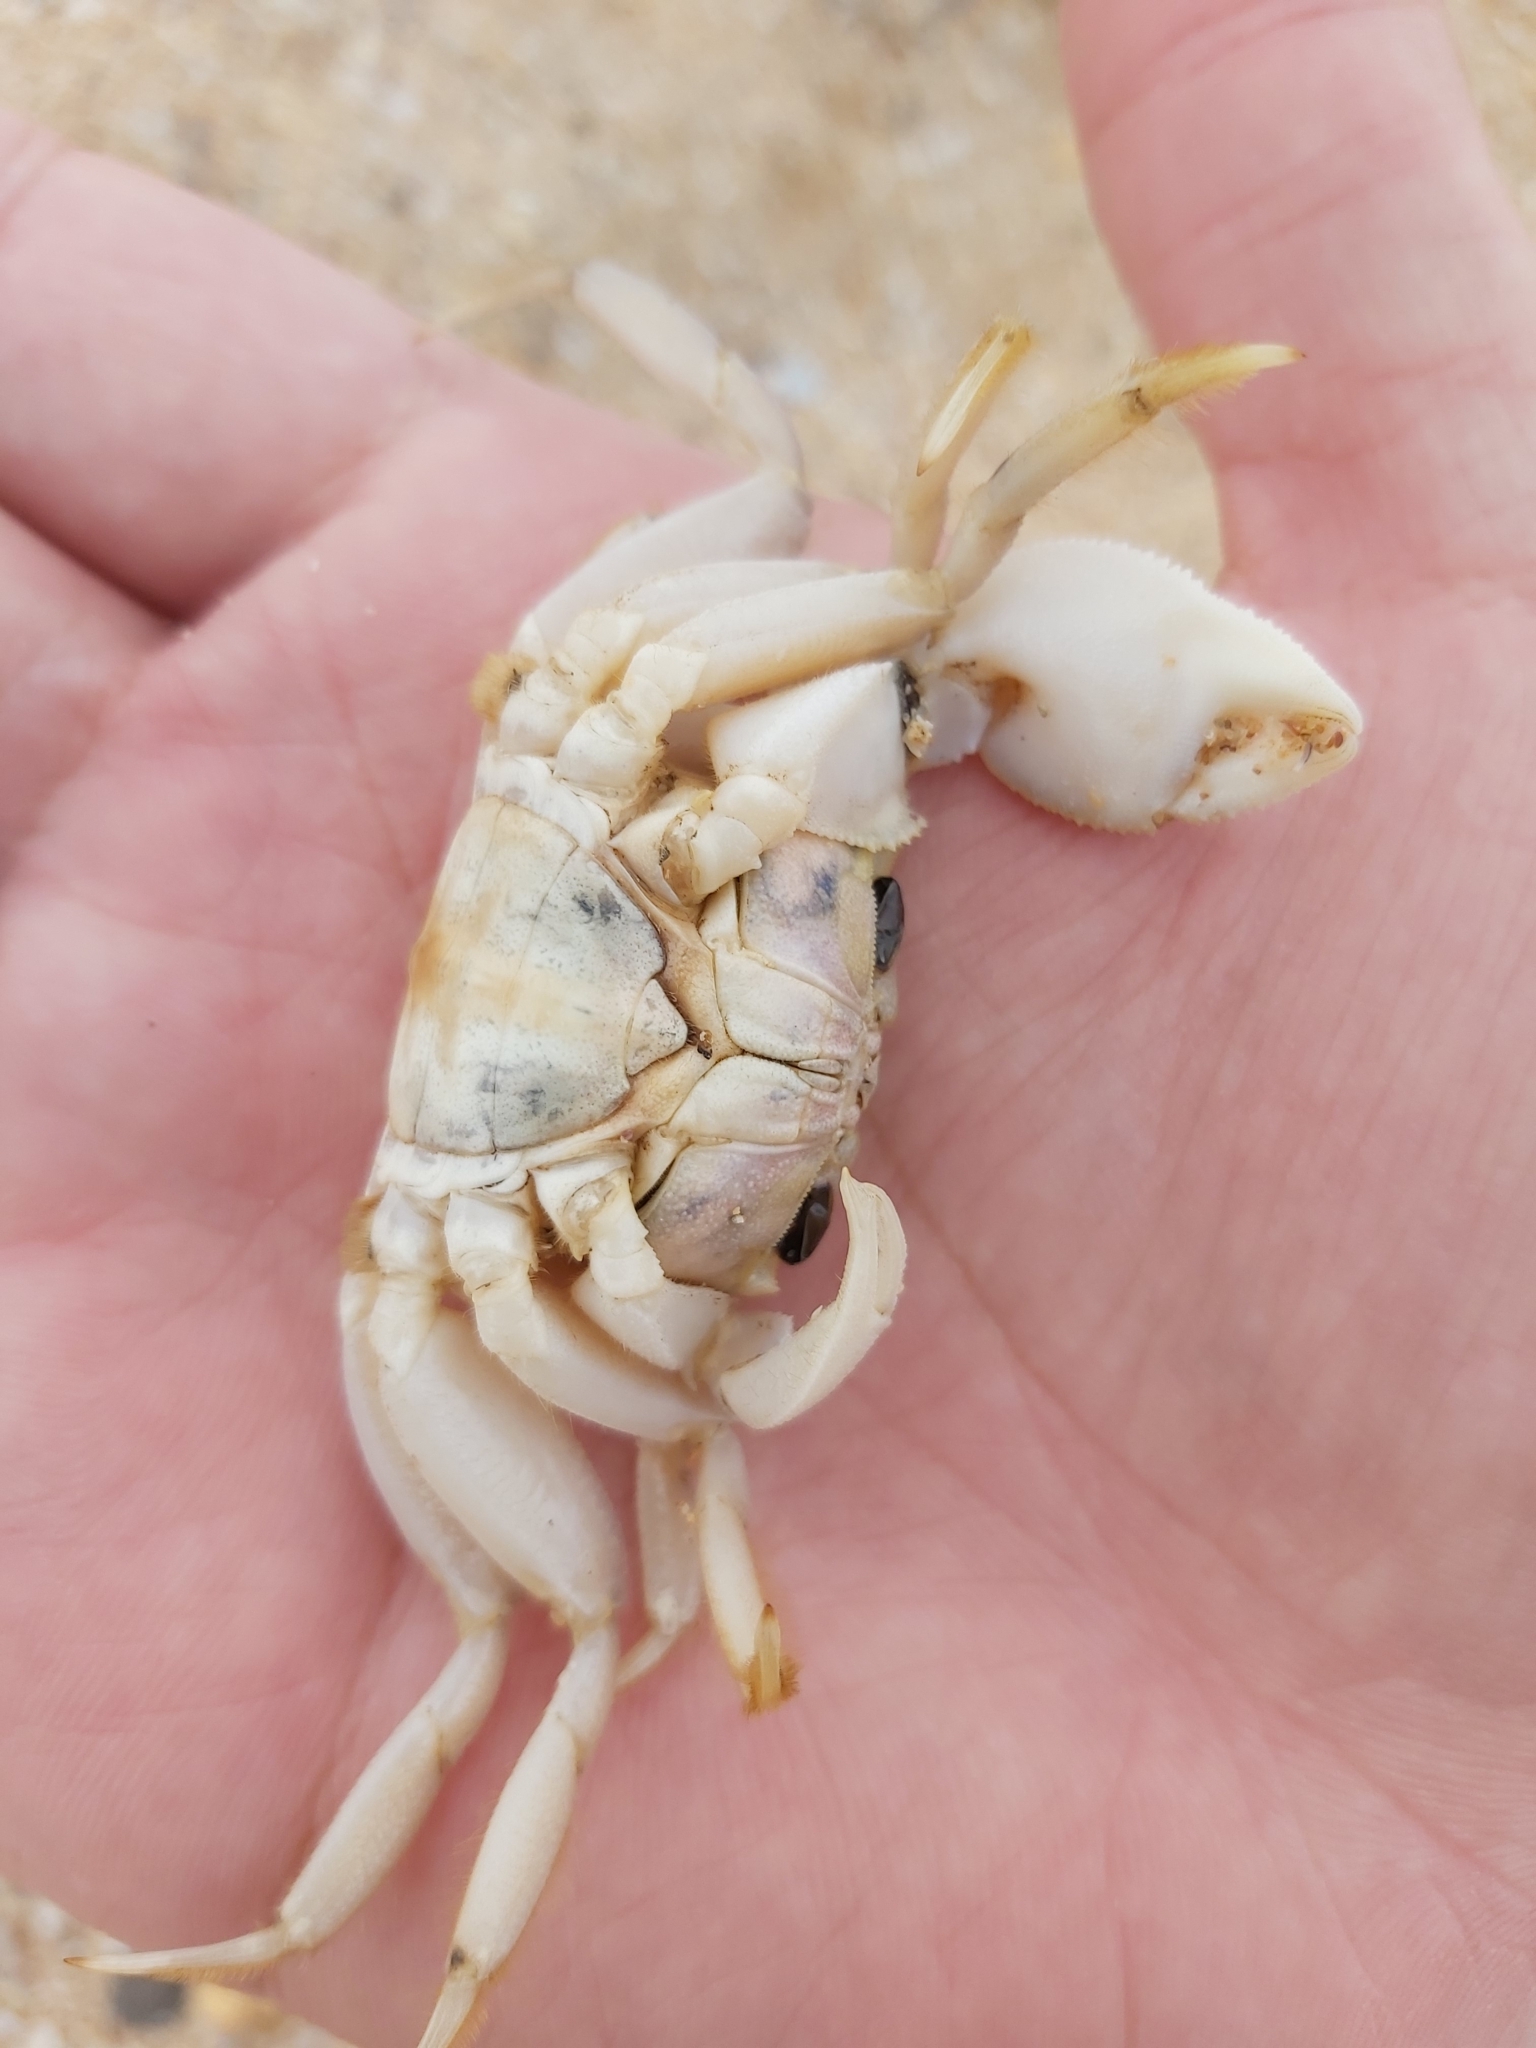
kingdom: Animalia
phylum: Arthropoda
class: Malacostraca
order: Decapoda
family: Ocypodidae
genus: Ocypode
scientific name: Ocypode cordimana
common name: Smooth-eyed ghost crab
